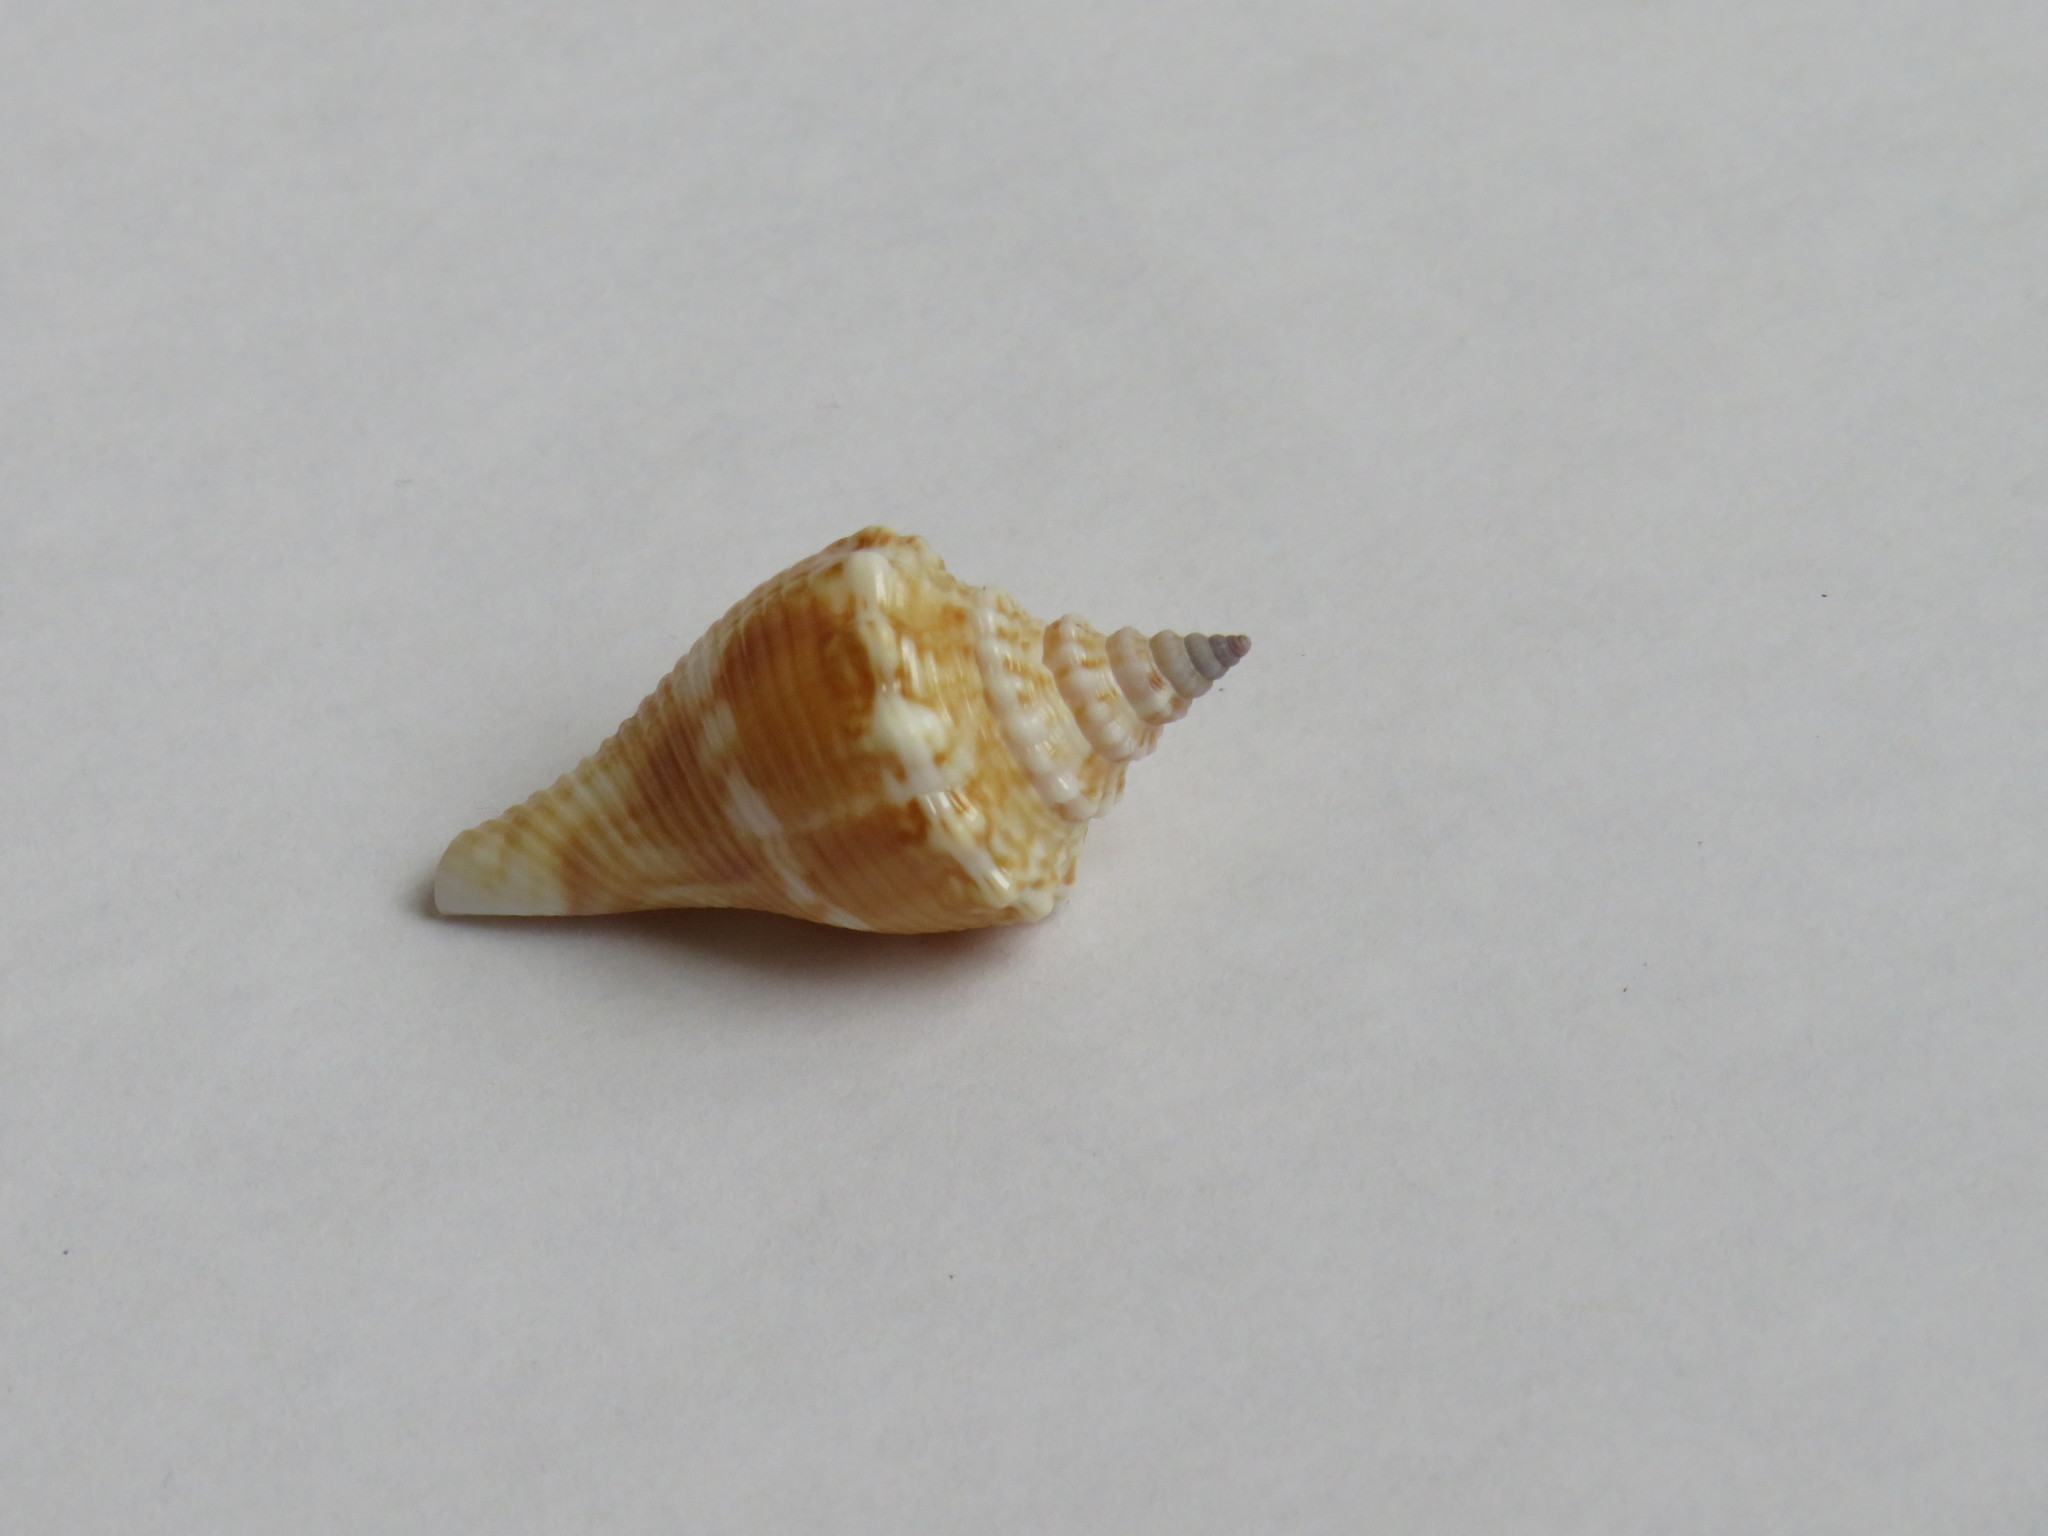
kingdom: Animalia
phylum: Mollusca
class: Gastropoda
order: Littorinimorpha
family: Strombidae
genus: Strombus
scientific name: Strombus alatus
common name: Florida fighting conch
